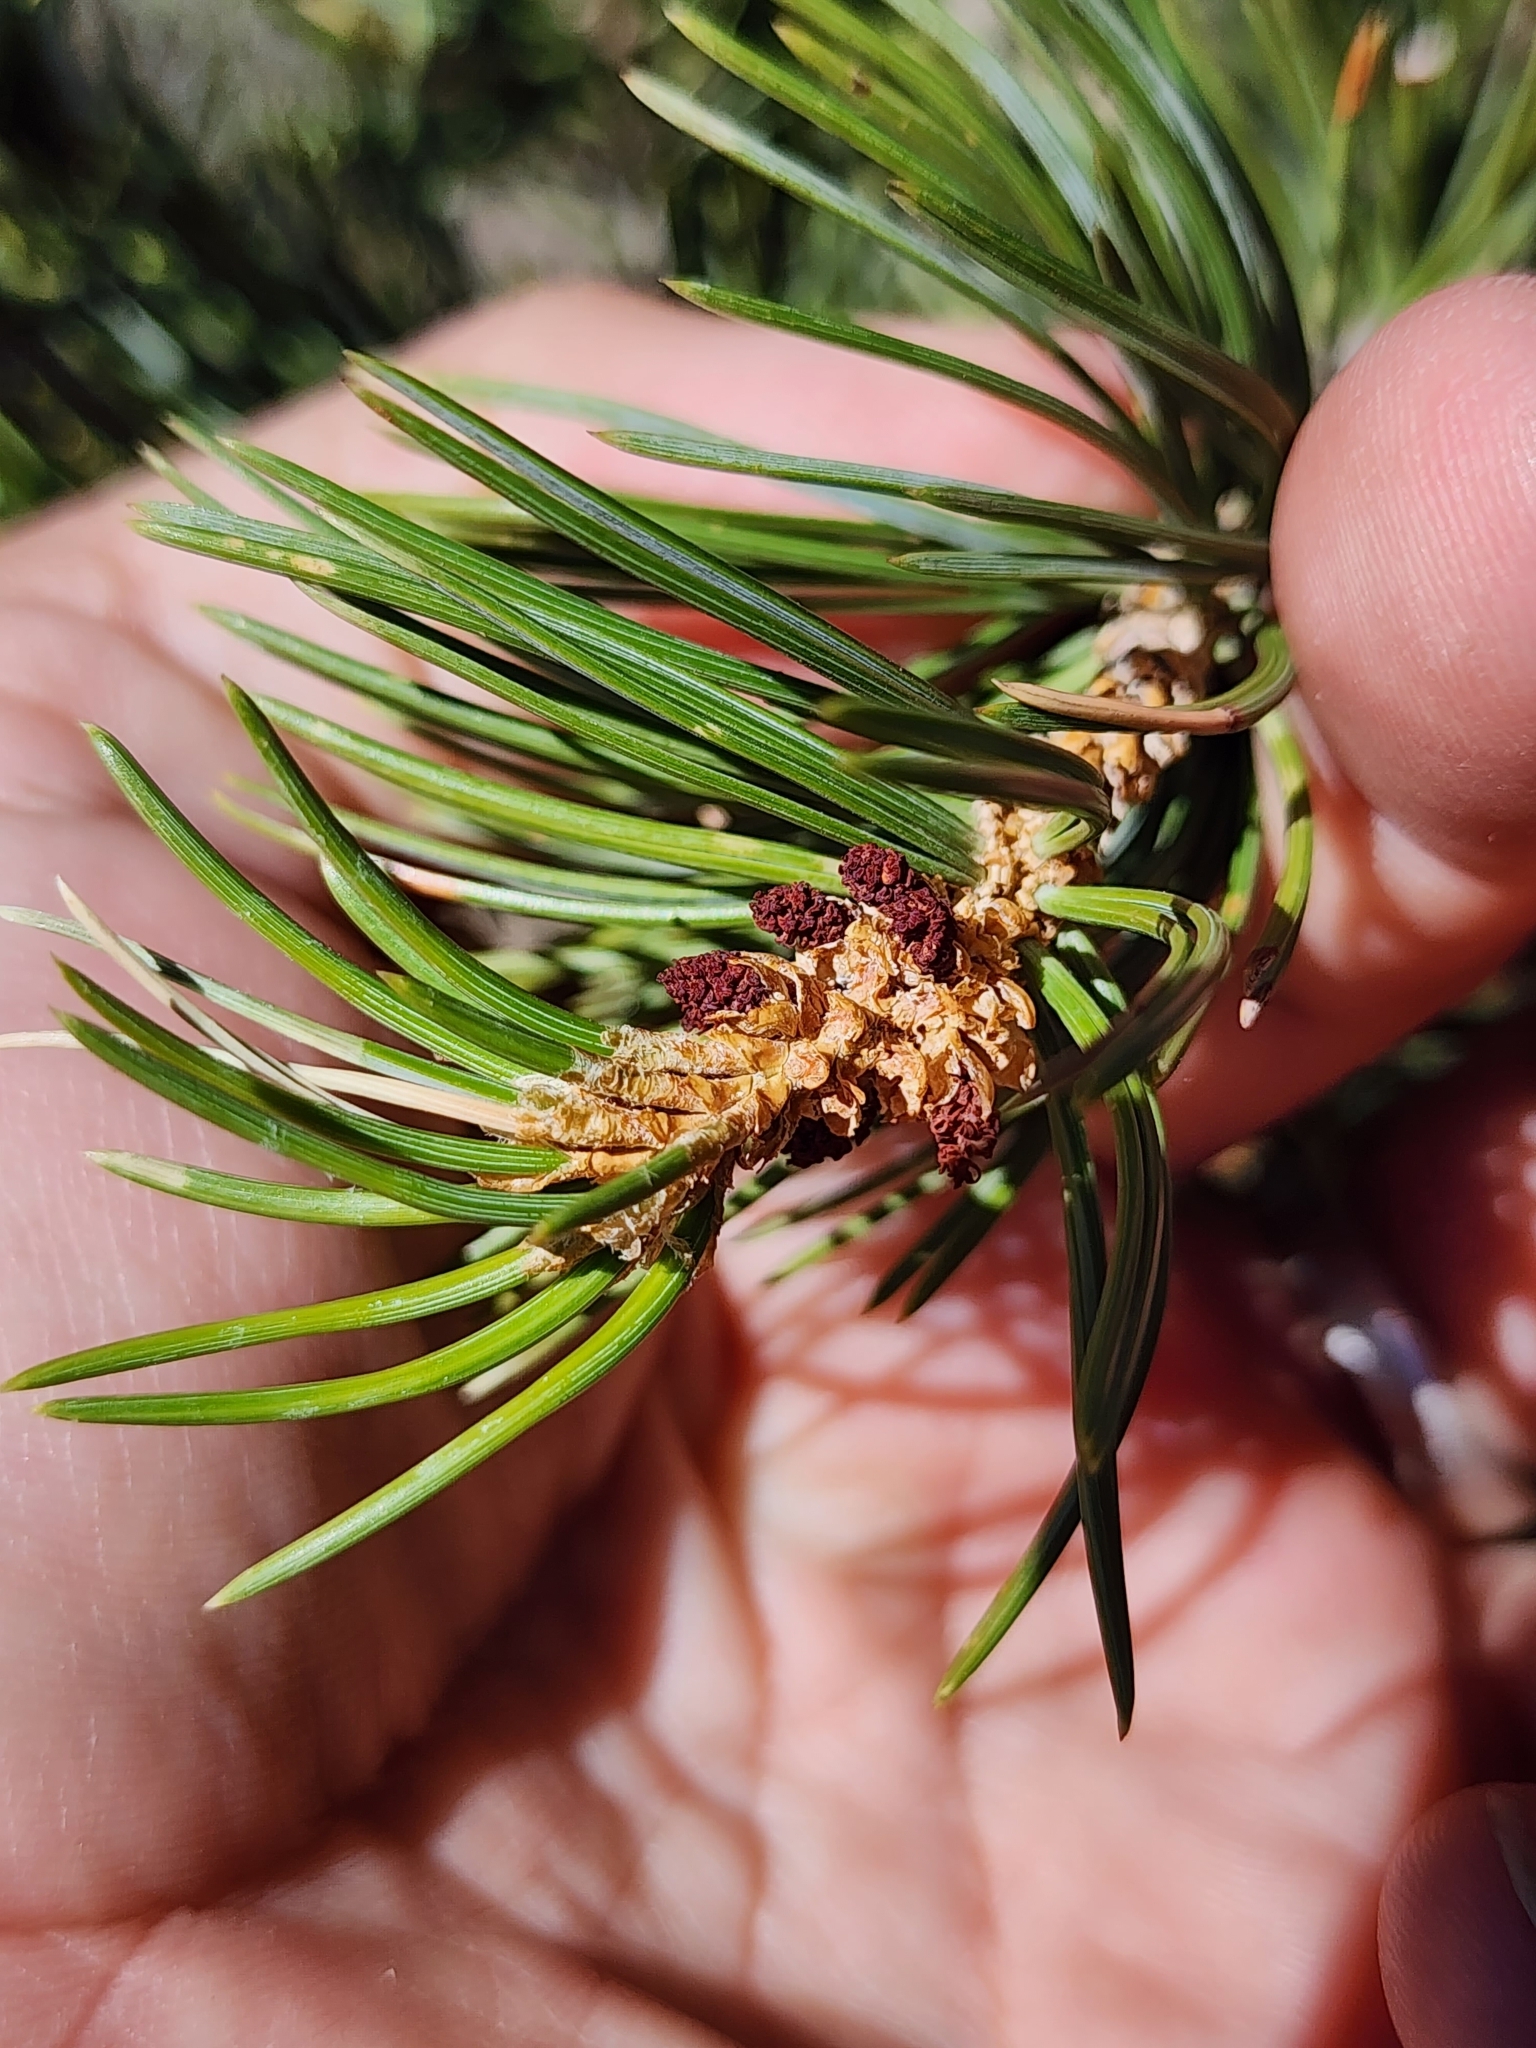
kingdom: Plantae
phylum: Tracheophyta
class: Pinopsida
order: Pinales
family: Pinaceae
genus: Pinus
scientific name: Pinus edulis
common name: Colorado pinyon
